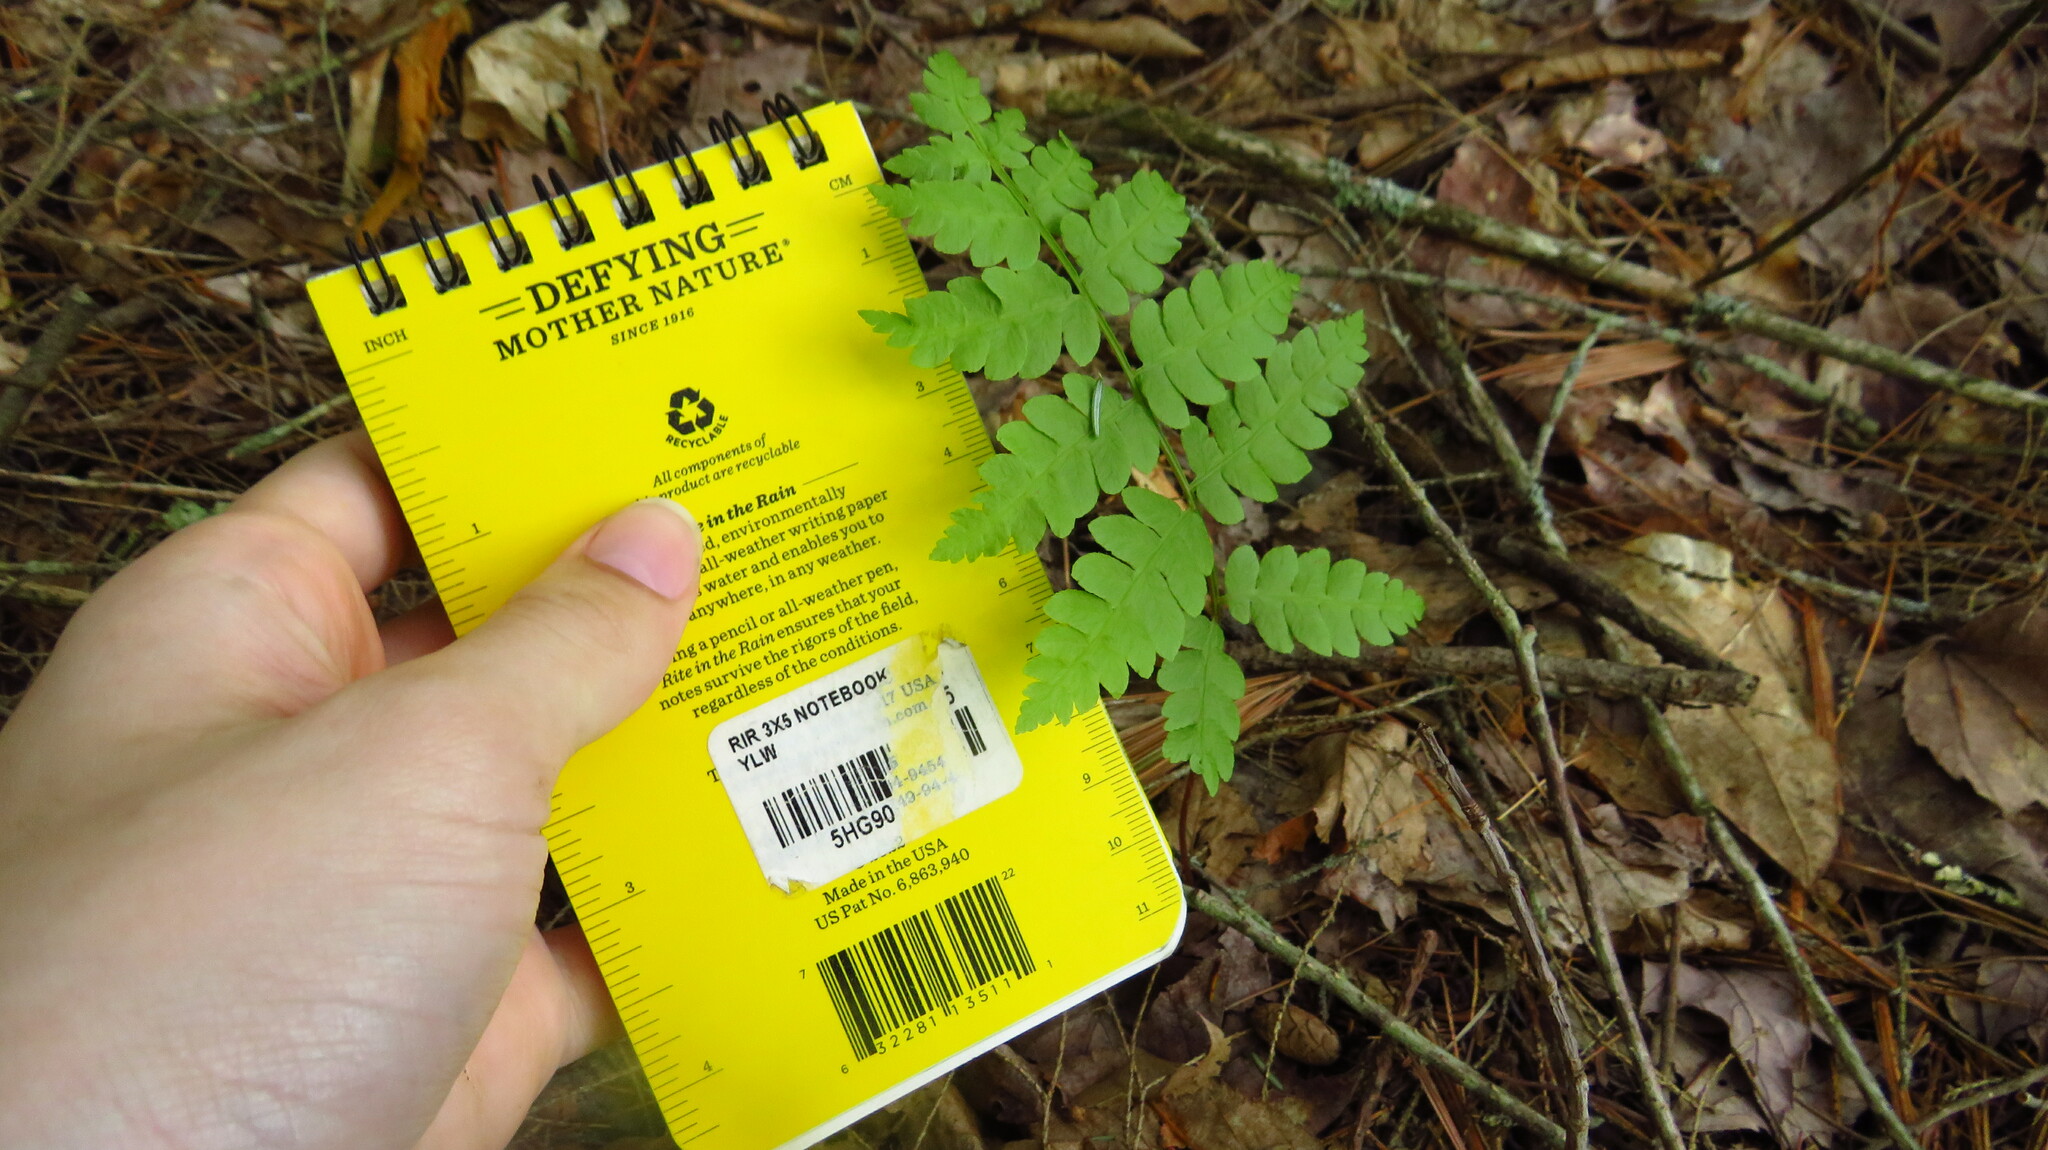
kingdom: Plantae
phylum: Tracheophyta
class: Polypodiopsida
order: Osmundales
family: Osmundaceae
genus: Osmundastrum
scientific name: Osmundastrum cinnamomeum
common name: Cinnamon fern
